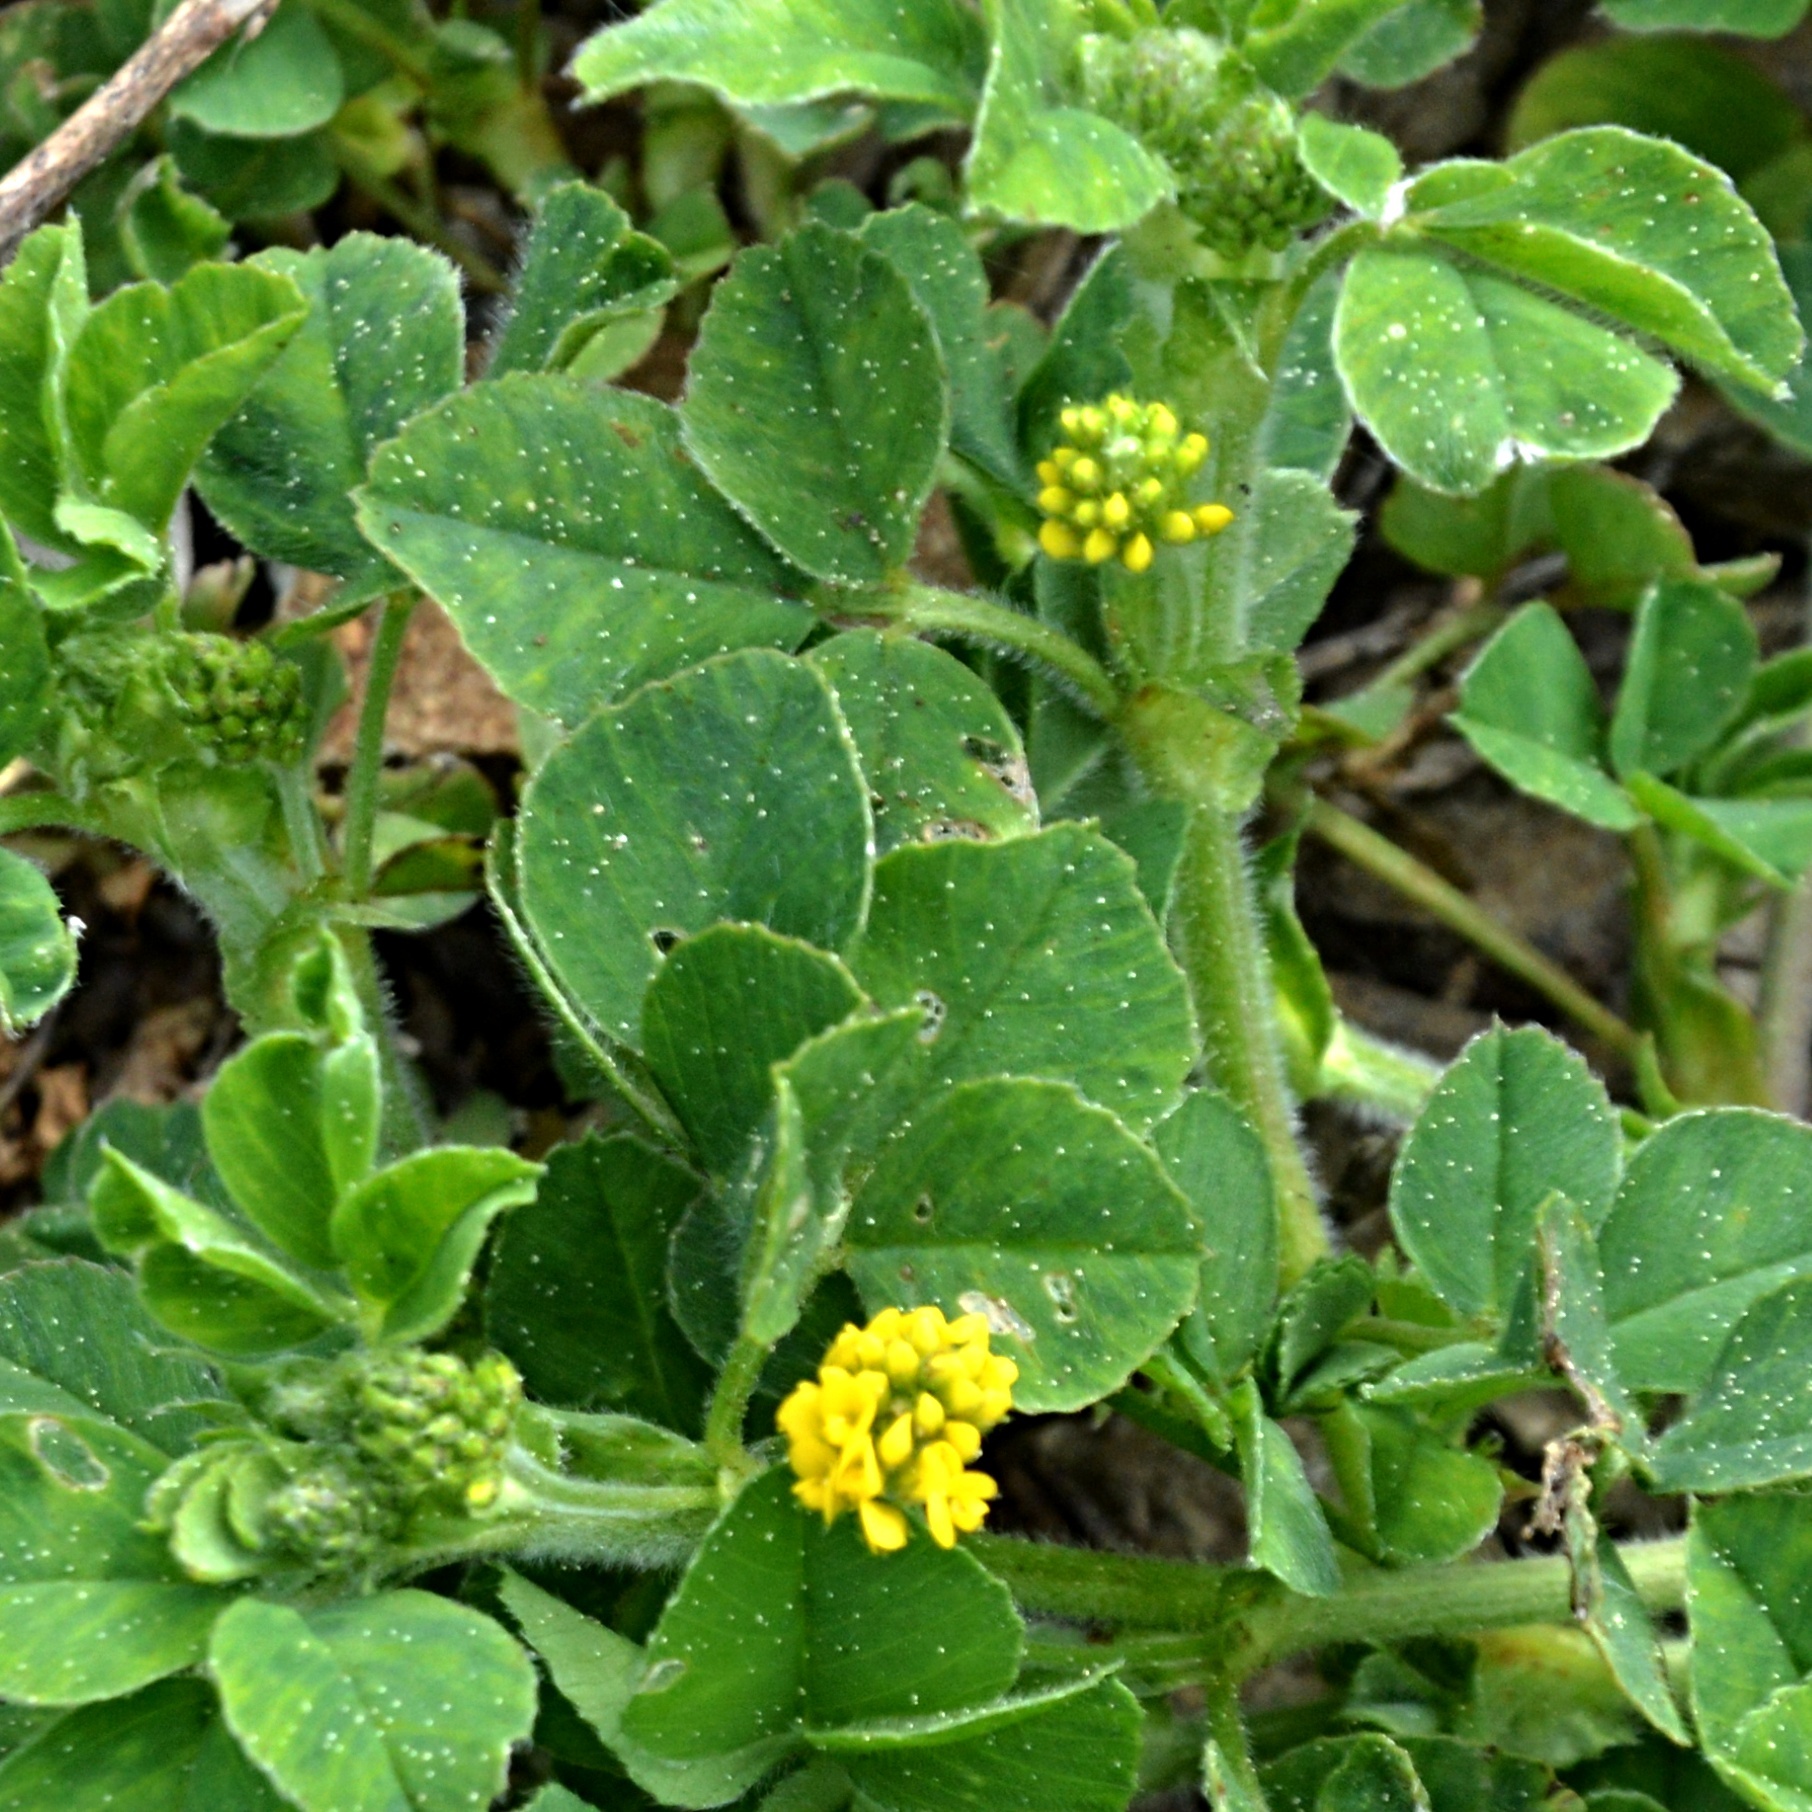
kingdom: Plantae
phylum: Tracheophyta
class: Magnoliopsida
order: Fabales
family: Fabaceae
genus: Medicago
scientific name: Medicago lupulina
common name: Black medick
